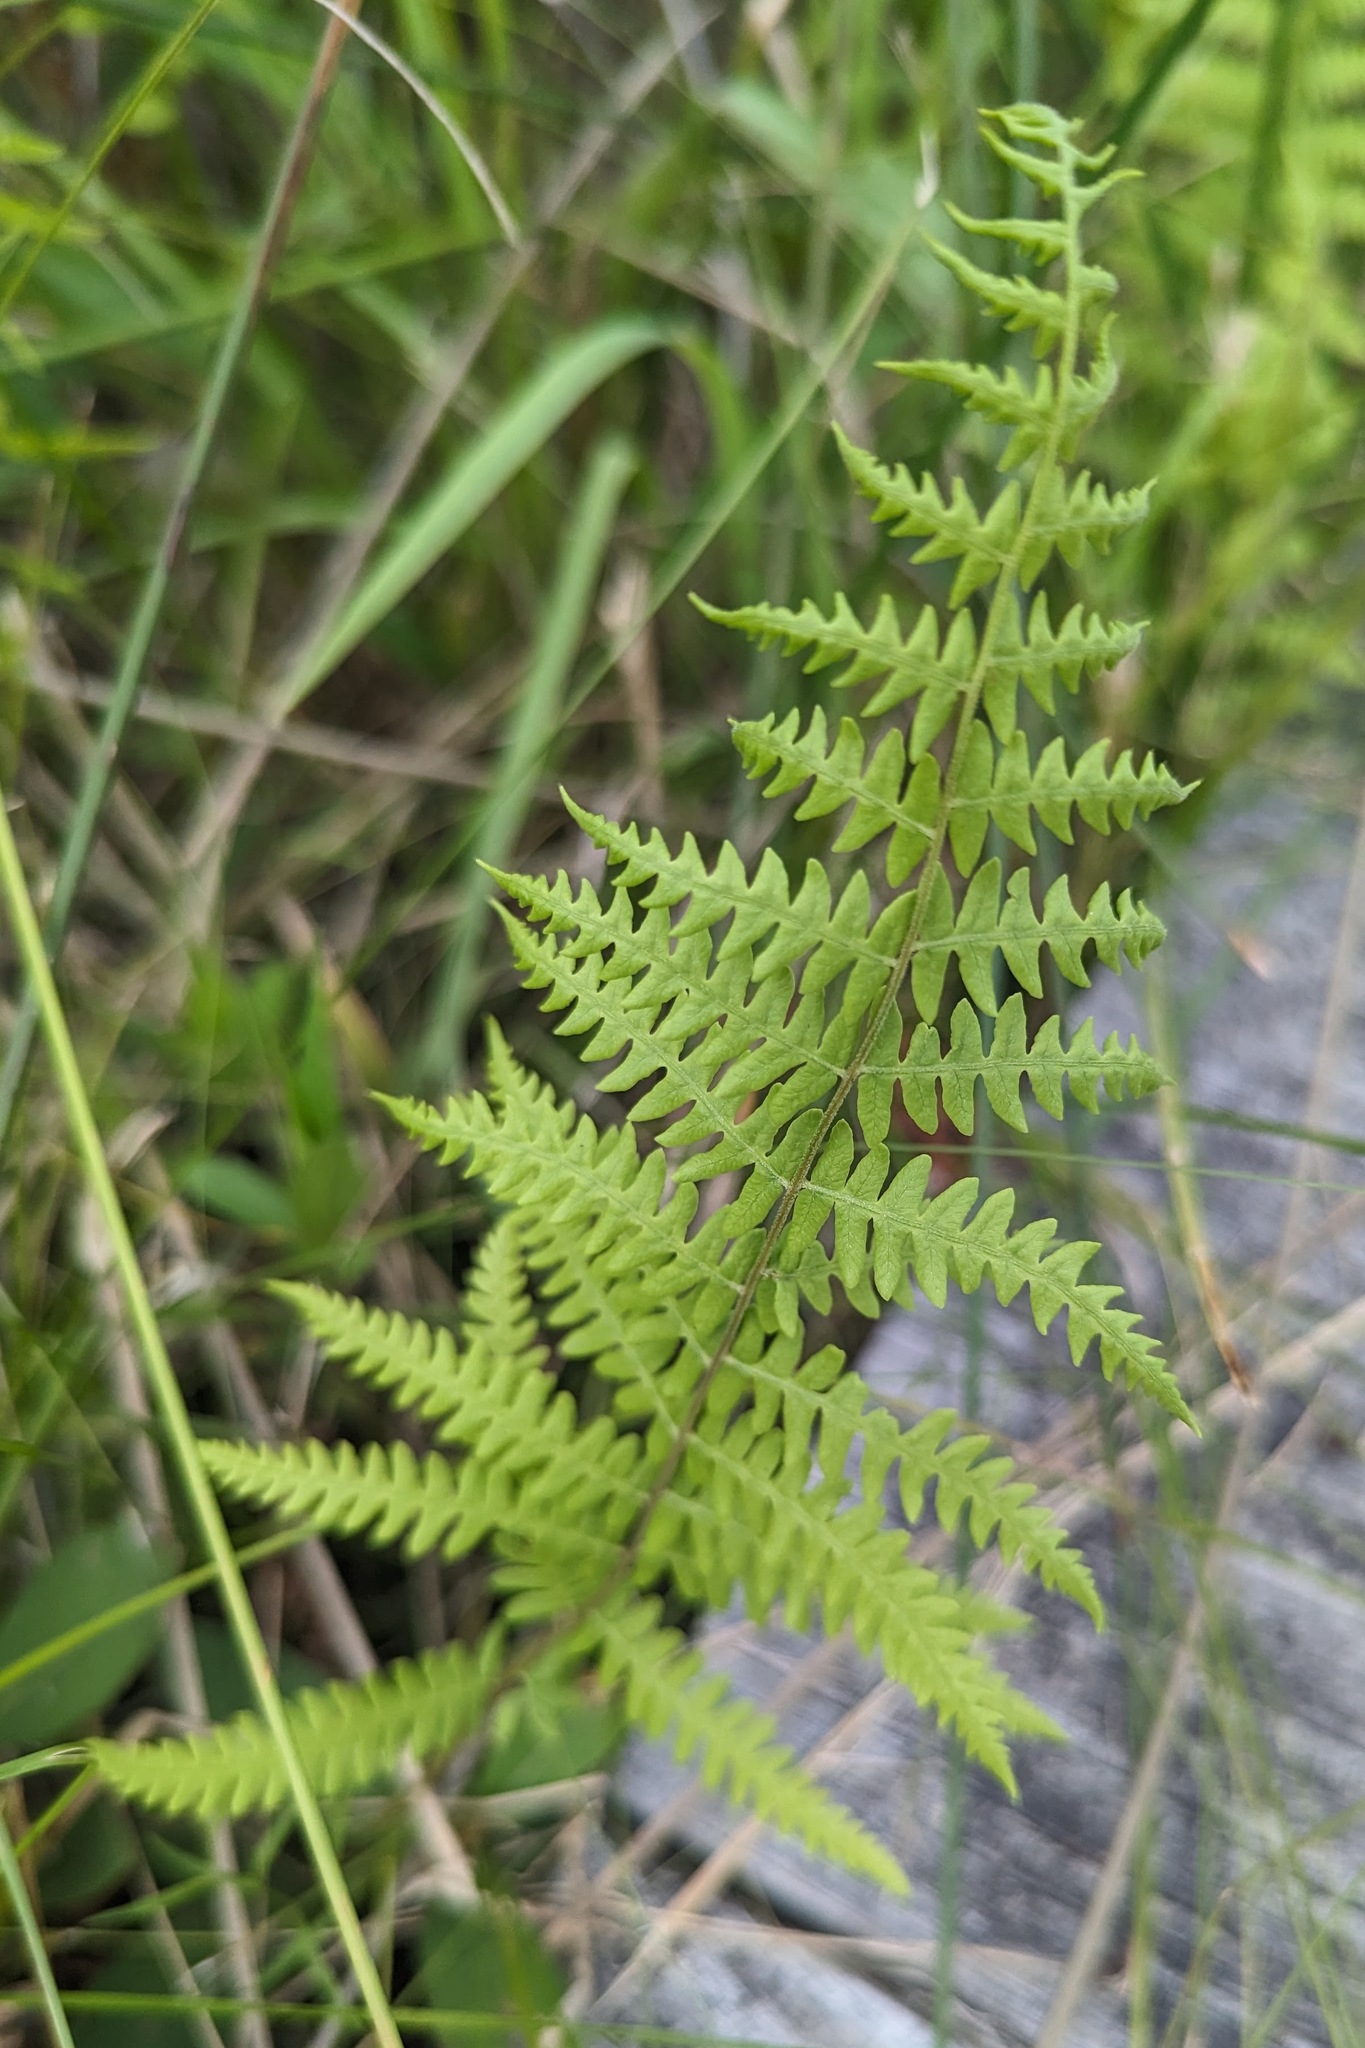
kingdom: Plantae
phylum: Tracheophyta
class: Polypodiopsida
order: Polypodiales
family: Thelypteridaceae
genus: Thelypteris
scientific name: Thelypteris palustris
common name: Marsh fern
